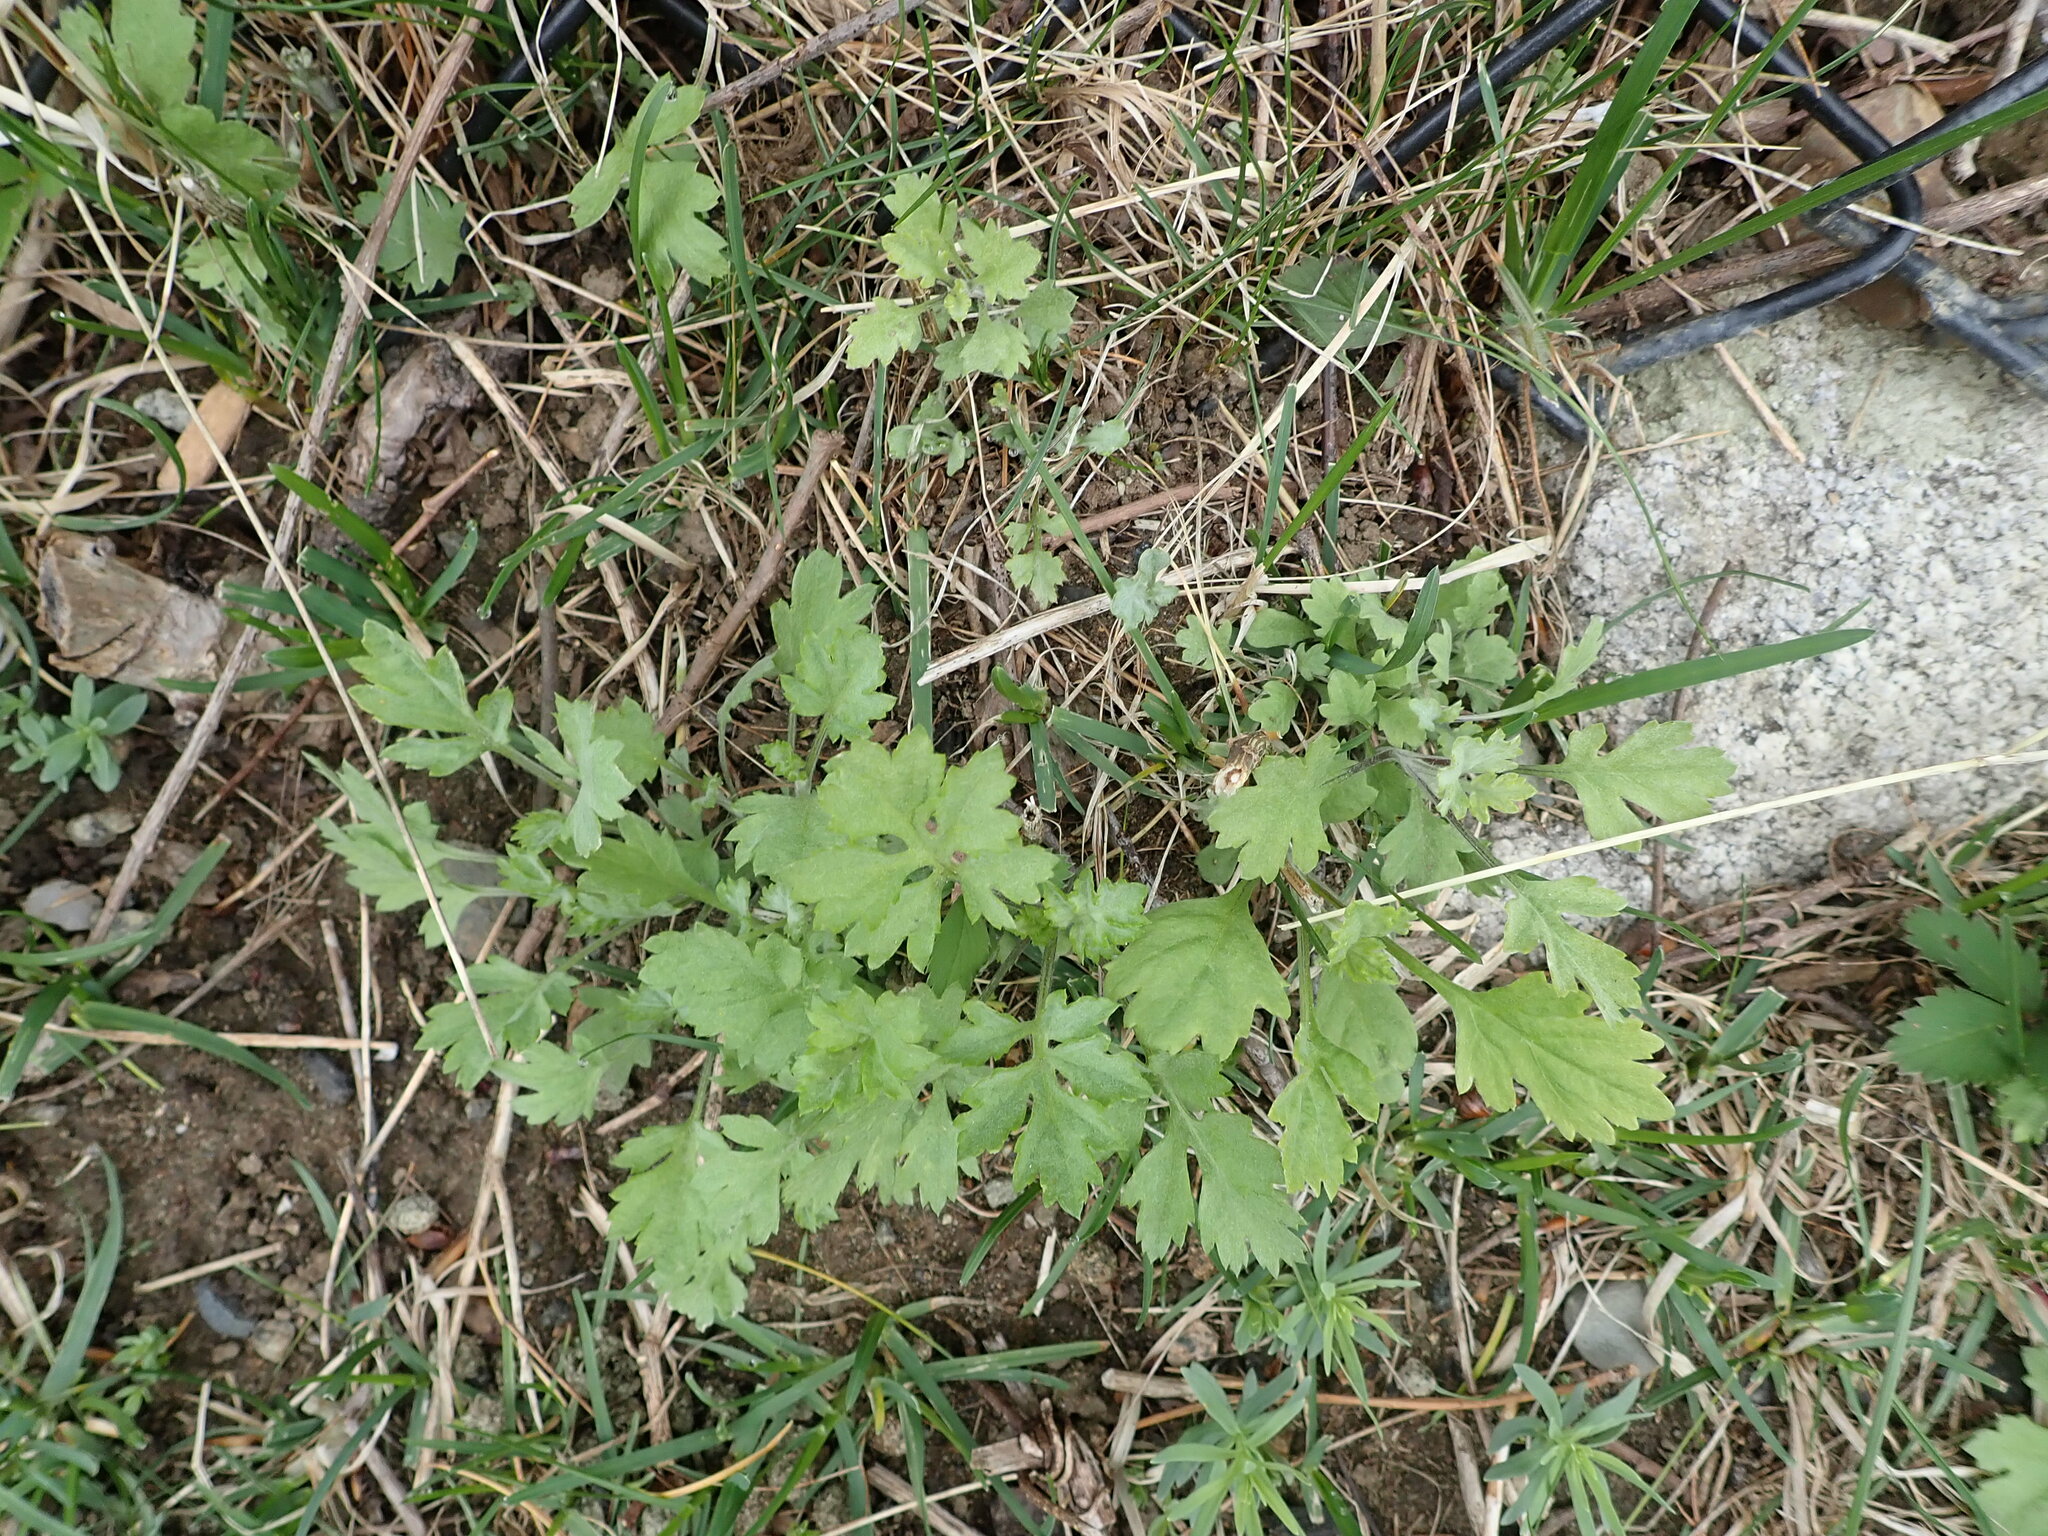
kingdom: Plantae
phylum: Tracheophyta
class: Magnoliopsida
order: Asterales
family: Asteraceae
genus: Artemisia
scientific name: Artemisia vulgaris
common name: Mugwort
